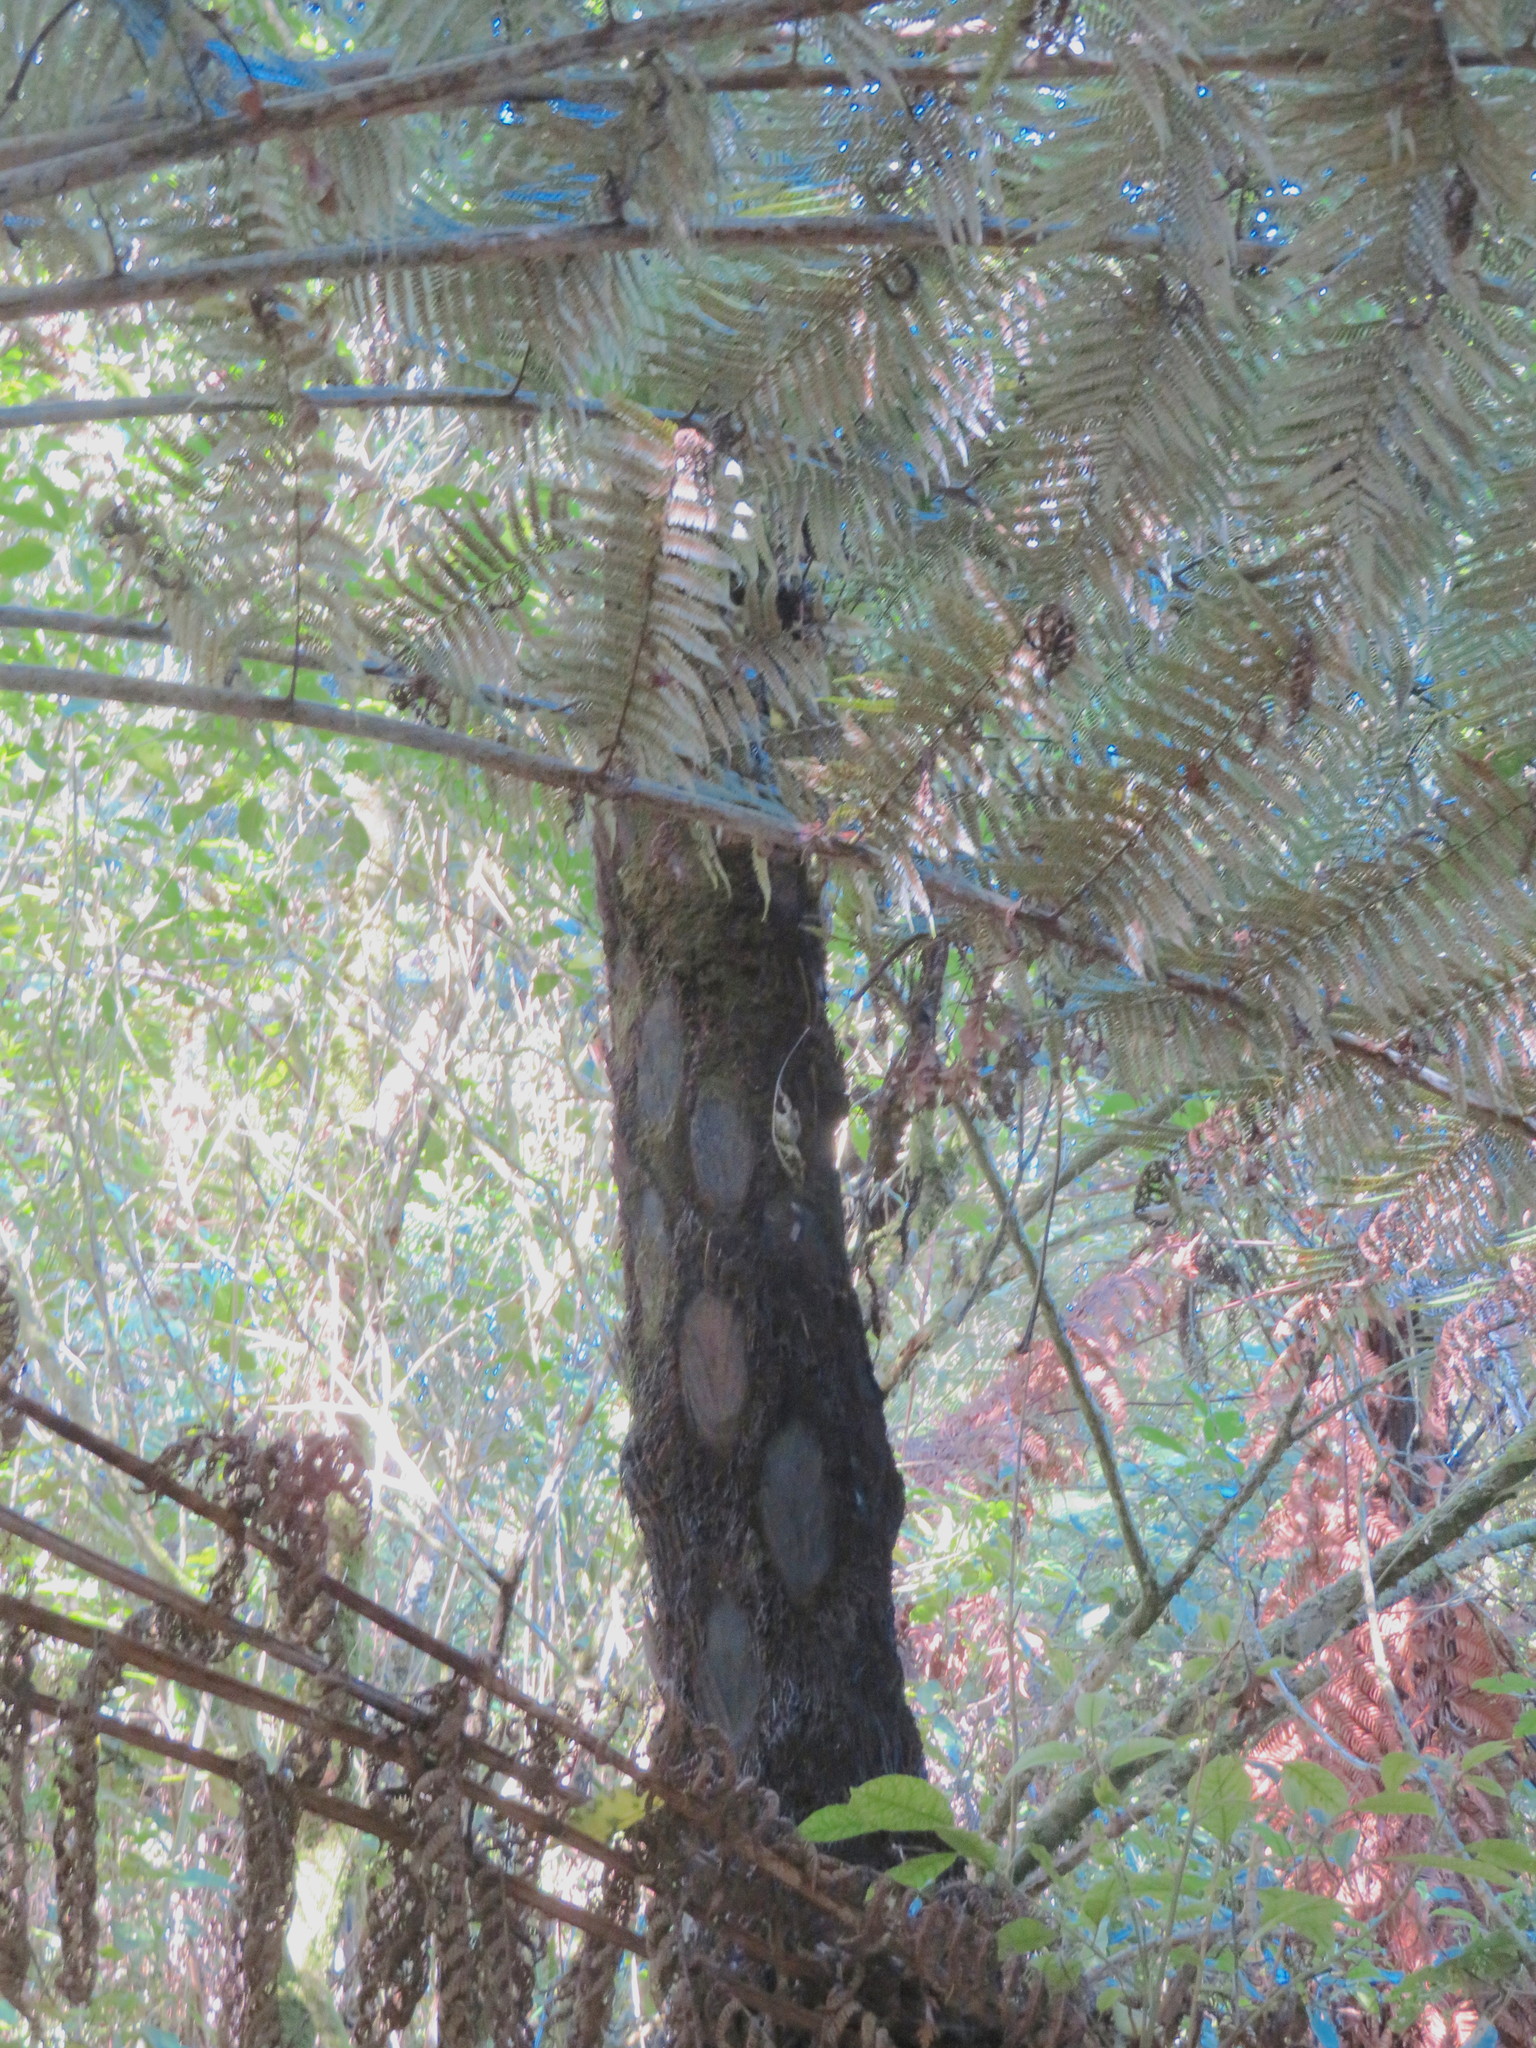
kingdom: Plantae
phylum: Tracheophyta
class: Polypodiopsida
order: Cyatheales
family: Cyatheaceae
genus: Alsophila
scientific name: Alsophila dealbata
